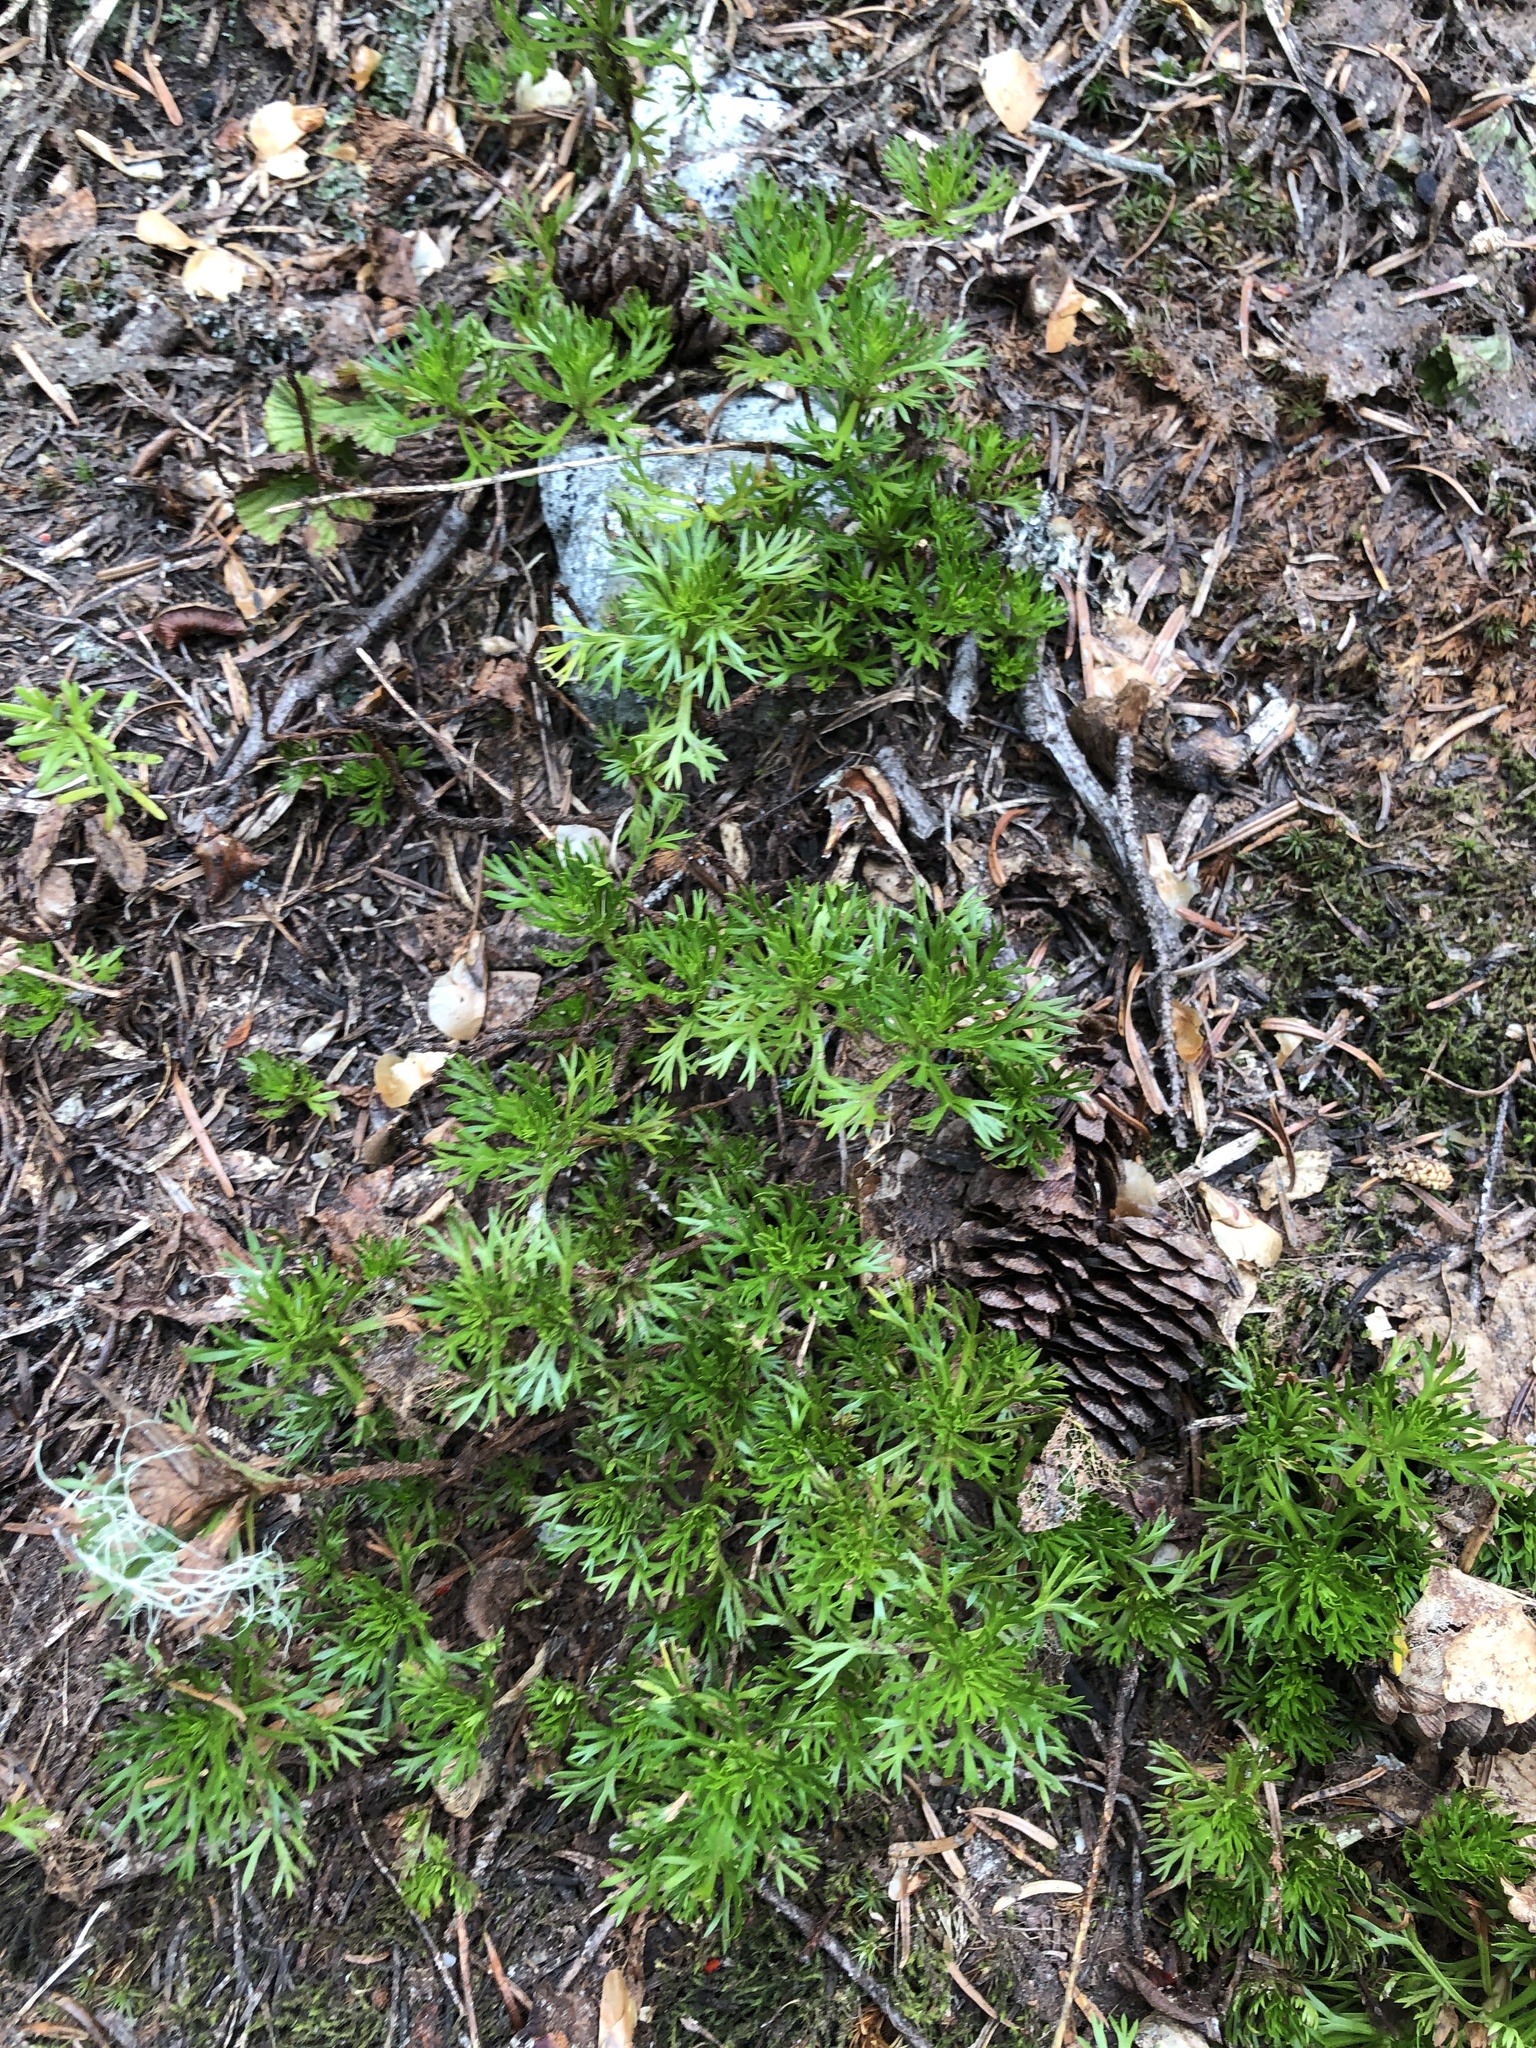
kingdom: Plantae
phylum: Tracheophyta
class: Magnoliopsida
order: Rosales
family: Rosaceae
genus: Luetkea
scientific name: Luetkea pectinata
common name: Partridgefoot
